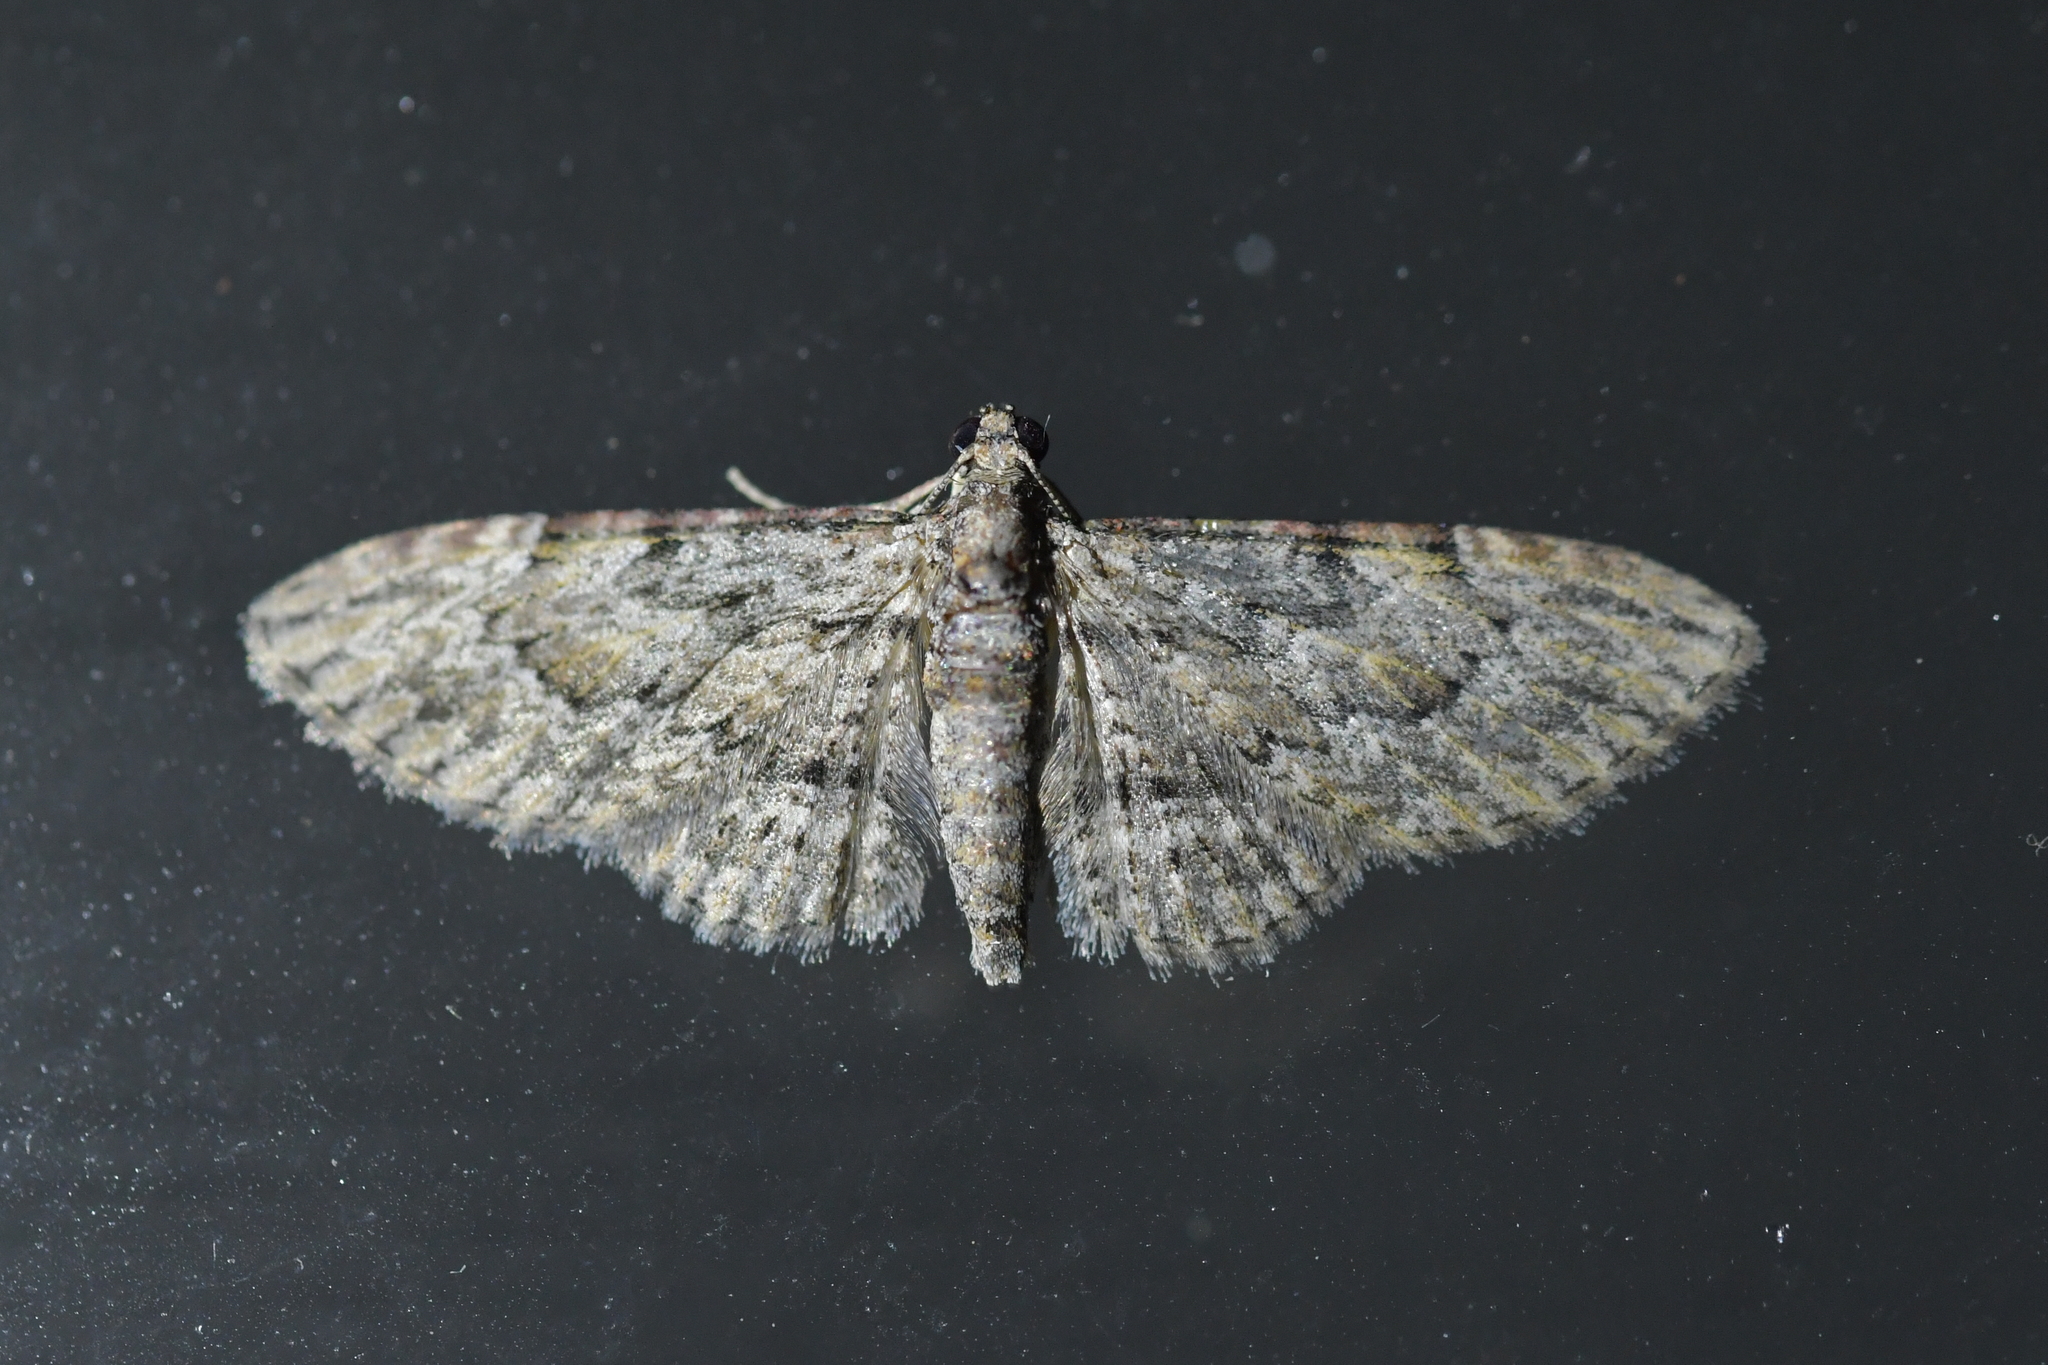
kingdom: Animalia
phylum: Arthropoda
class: Insecta
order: Lepidoptera
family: Geometridae
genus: Chloroclystis
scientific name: Chloroclystis insigillata
